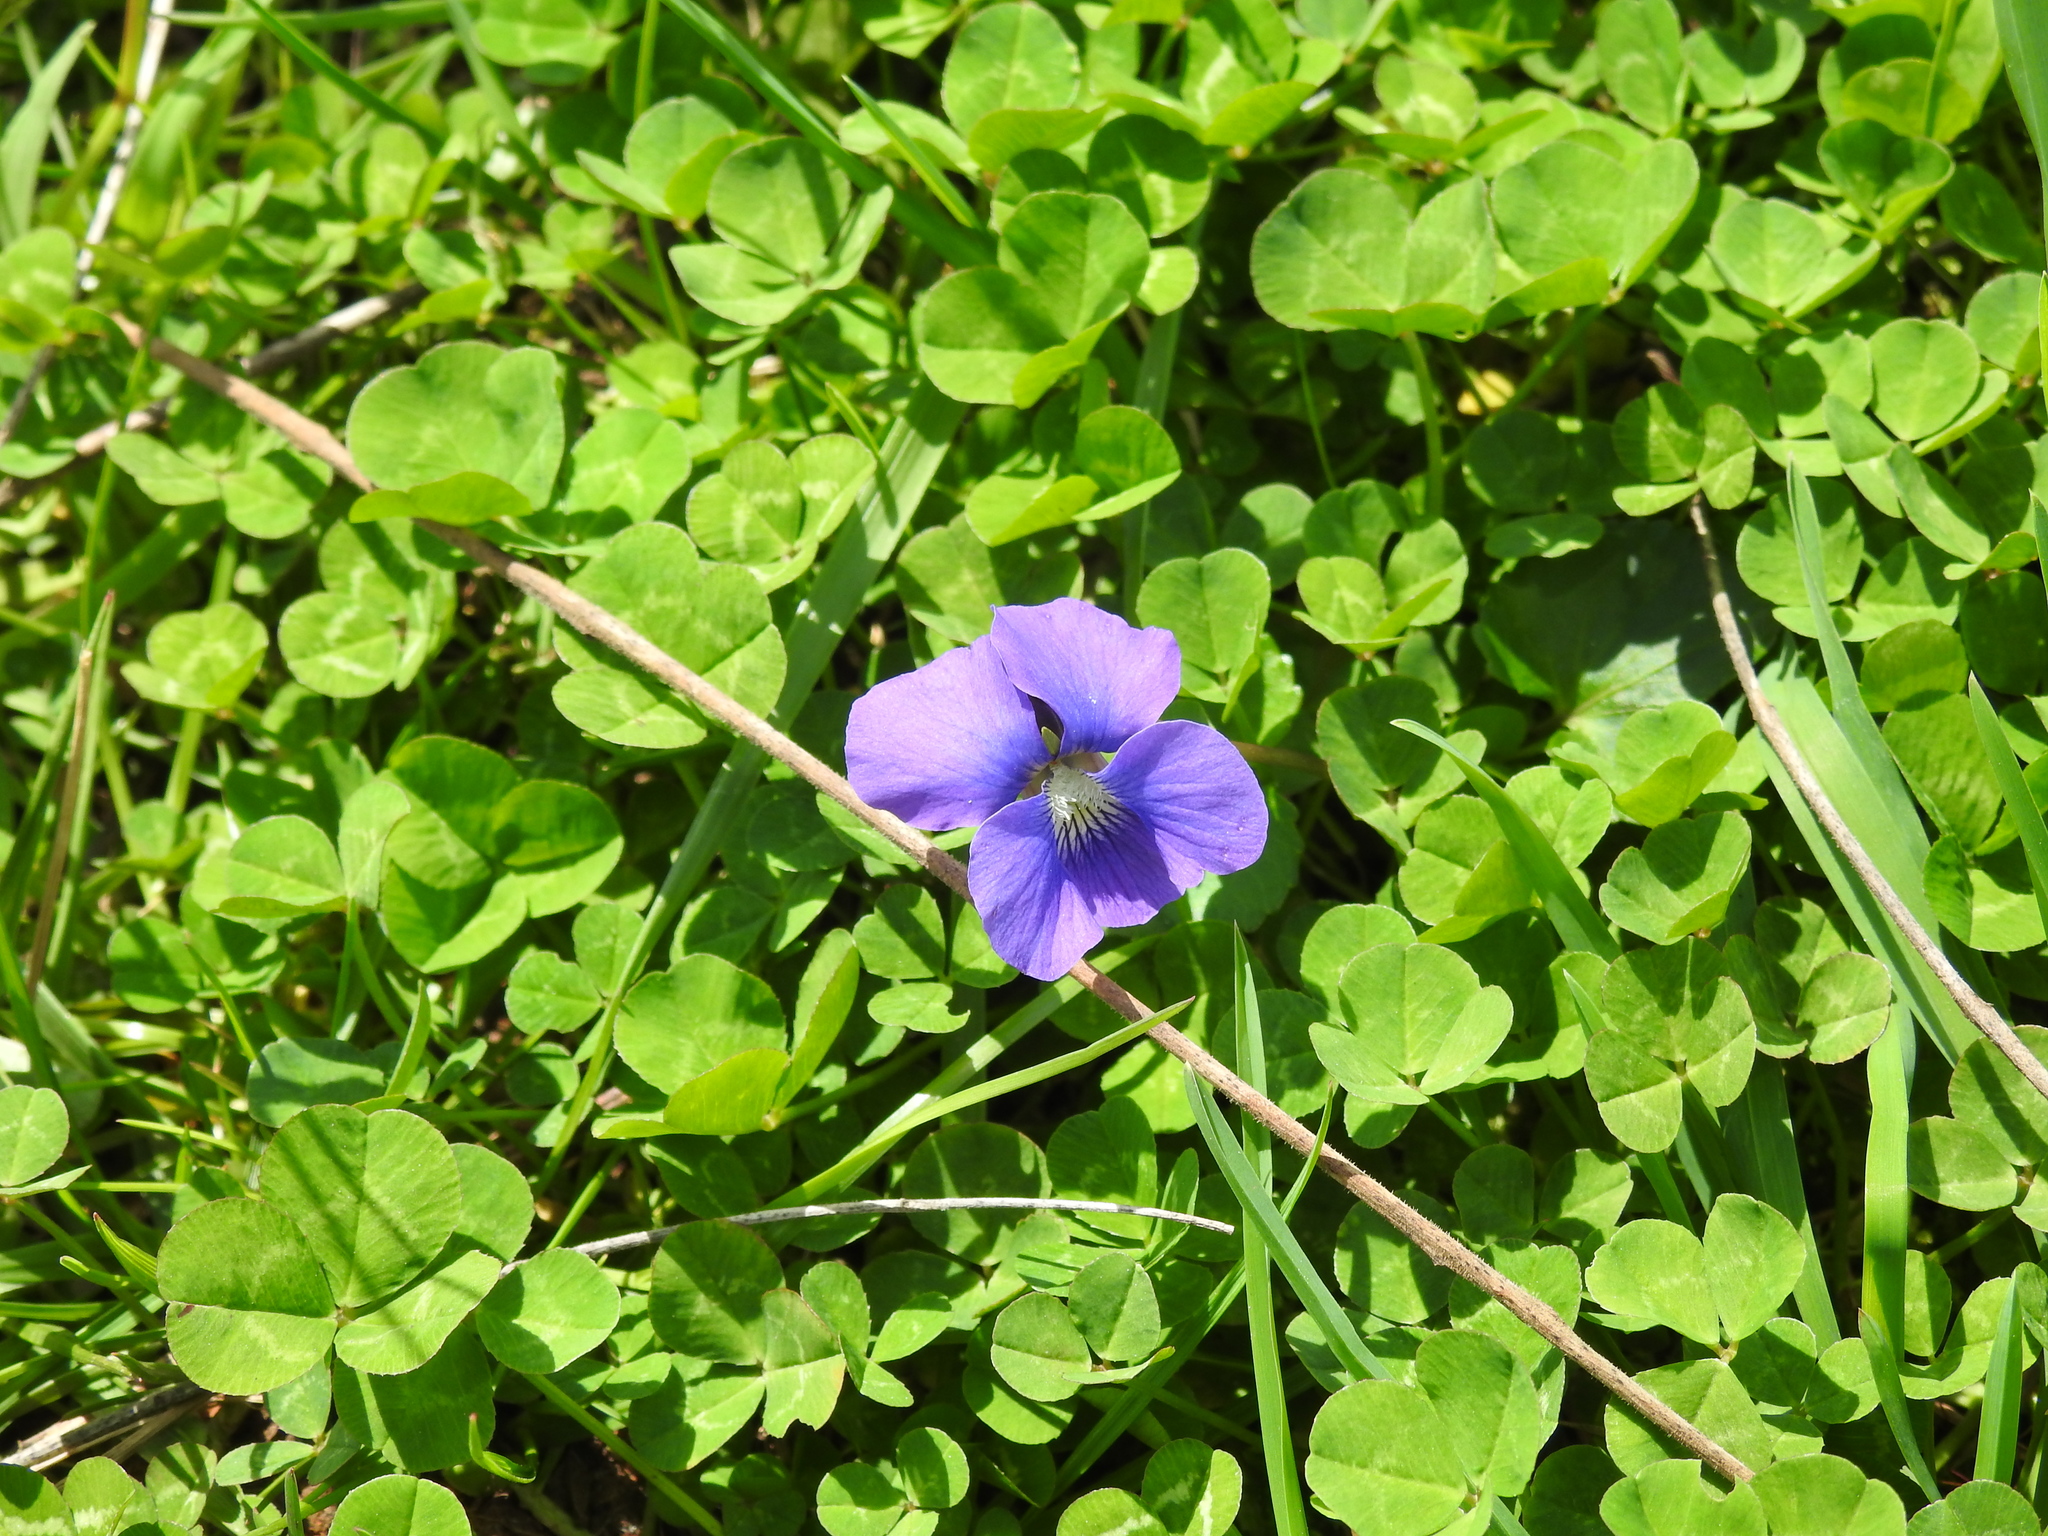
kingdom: Plantae
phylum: Tracheophyta
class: Magnoliopsida
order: Malpighiales
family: Violaceae
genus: Viola
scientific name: Viola sororia
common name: Dooryard violet
